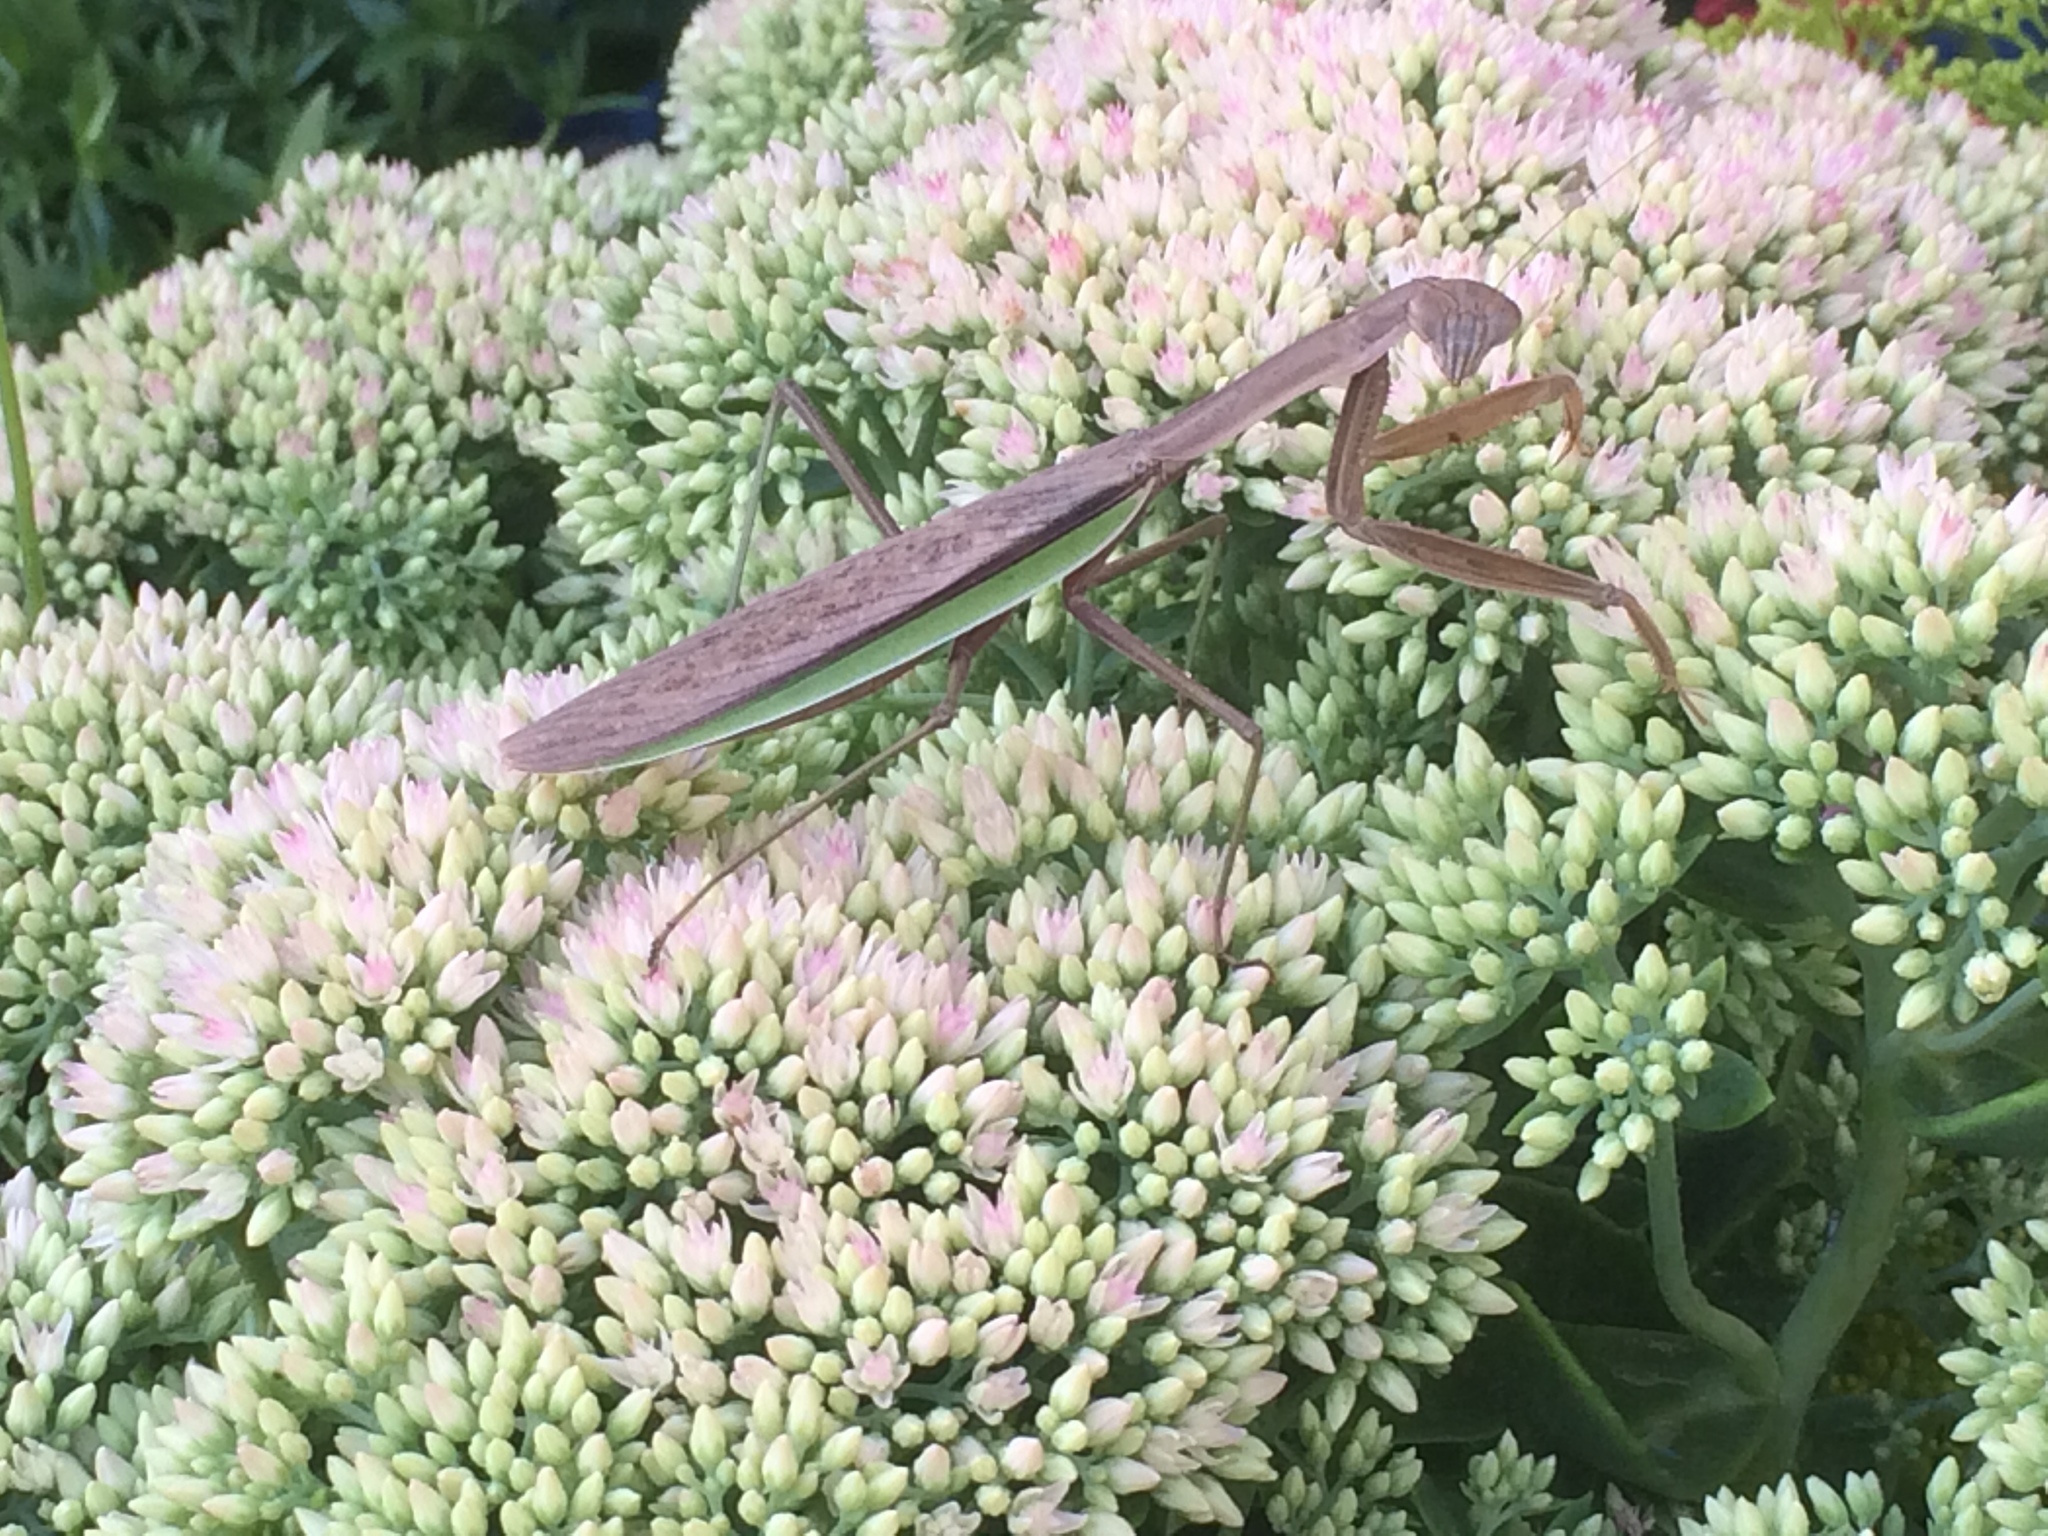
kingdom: Animalia
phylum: Arthropoda
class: Insecta
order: Mantodea
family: Mantidae
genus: Tenodera
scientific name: Tenodera sinensis
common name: Chinese mantis
